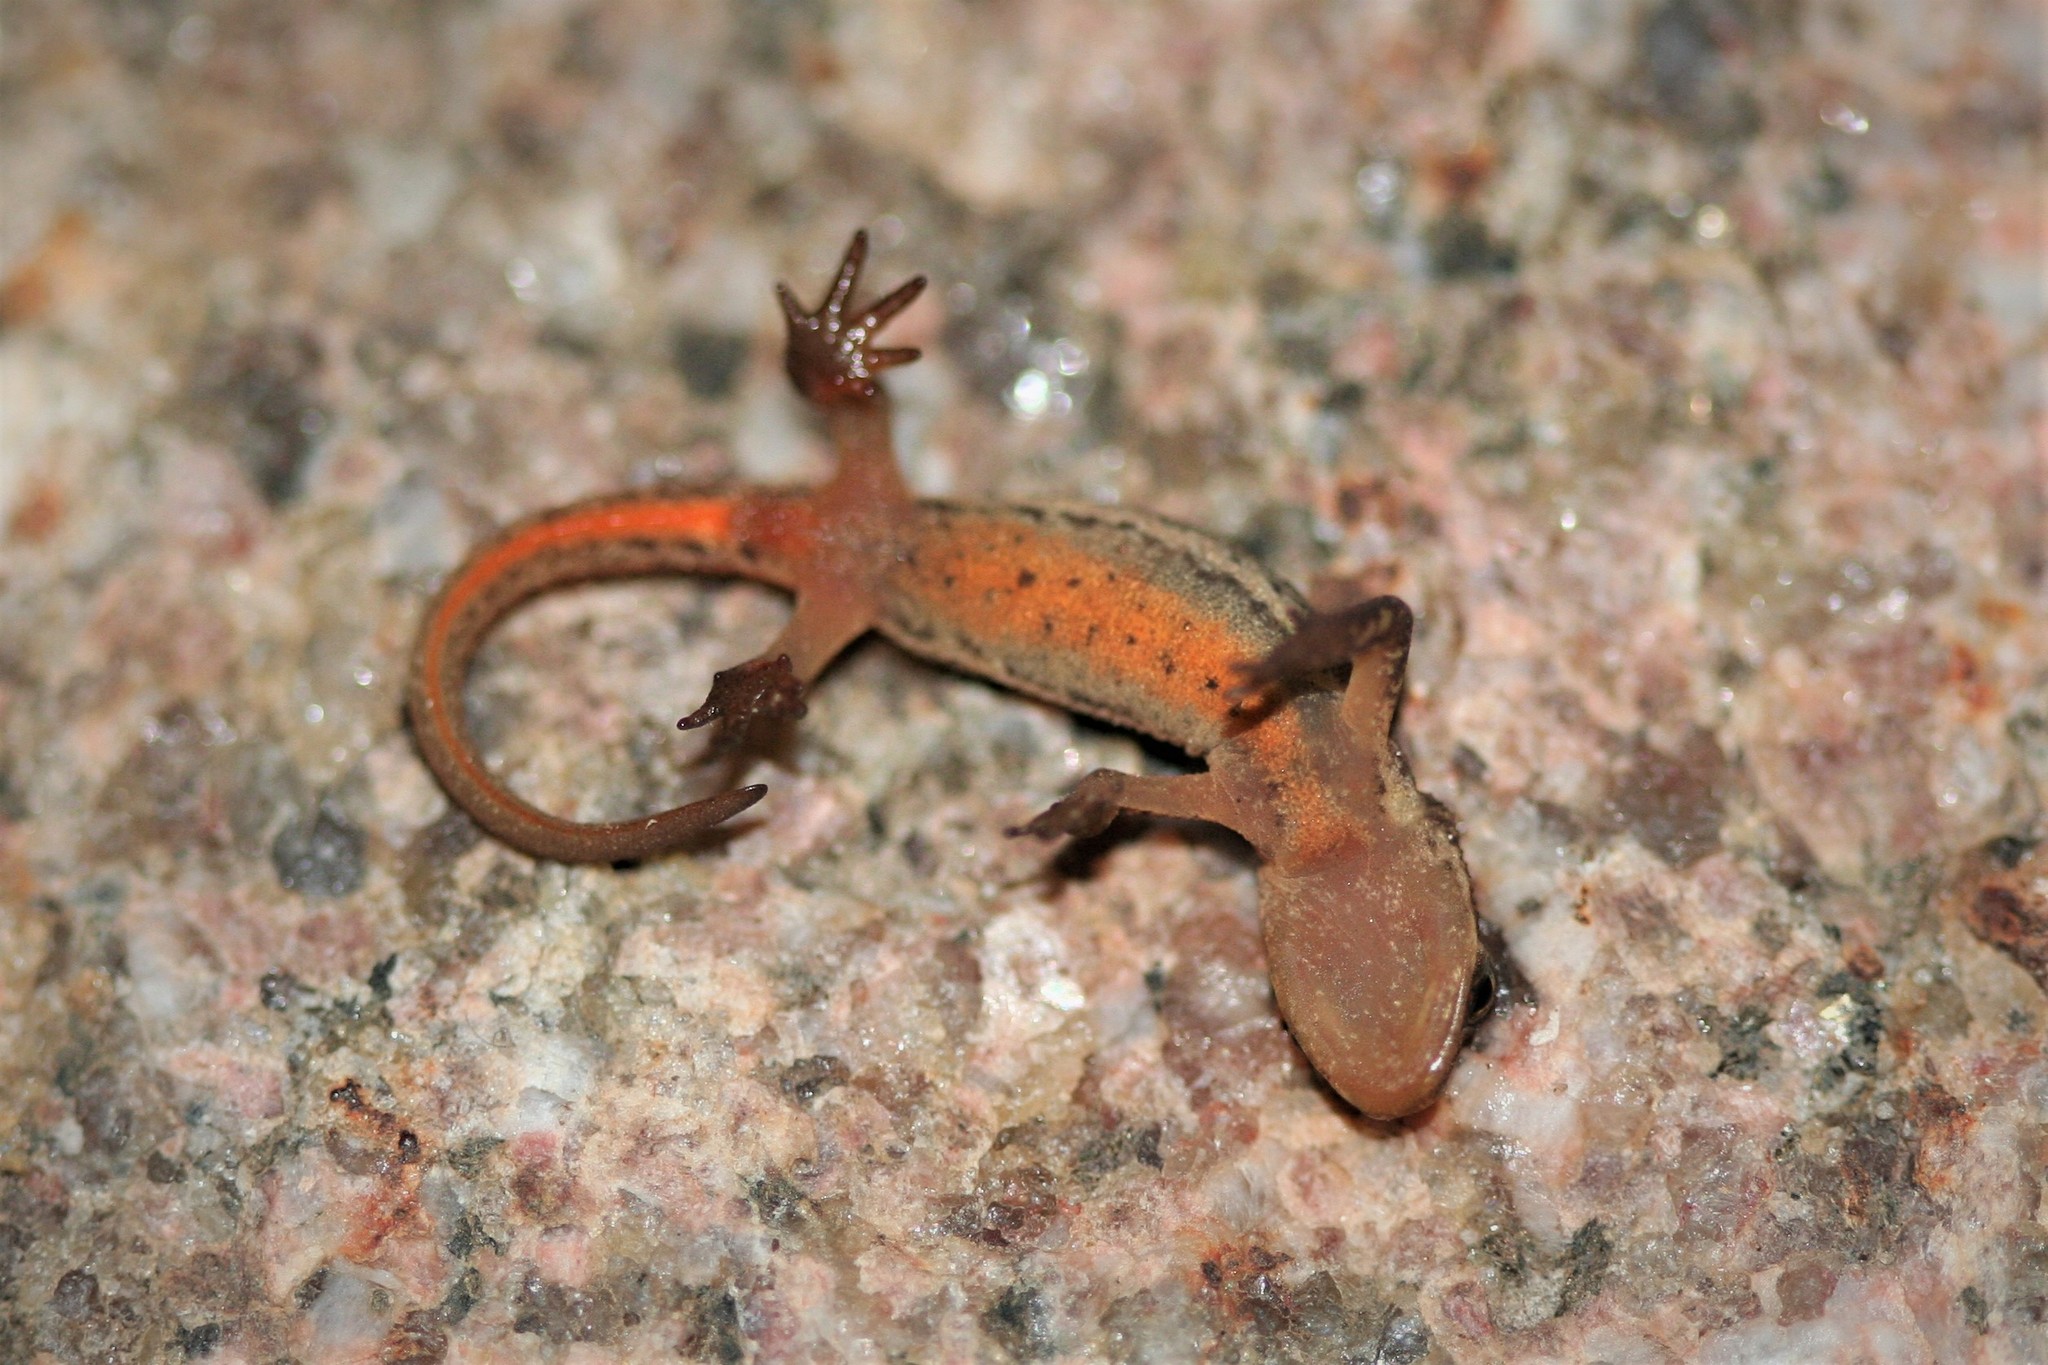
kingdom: Animalia
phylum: Chordata
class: Amphibia
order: Caudata
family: Salamandridae
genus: Lissotriton
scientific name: Lissotriton vulgaris
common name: Smooth newt
